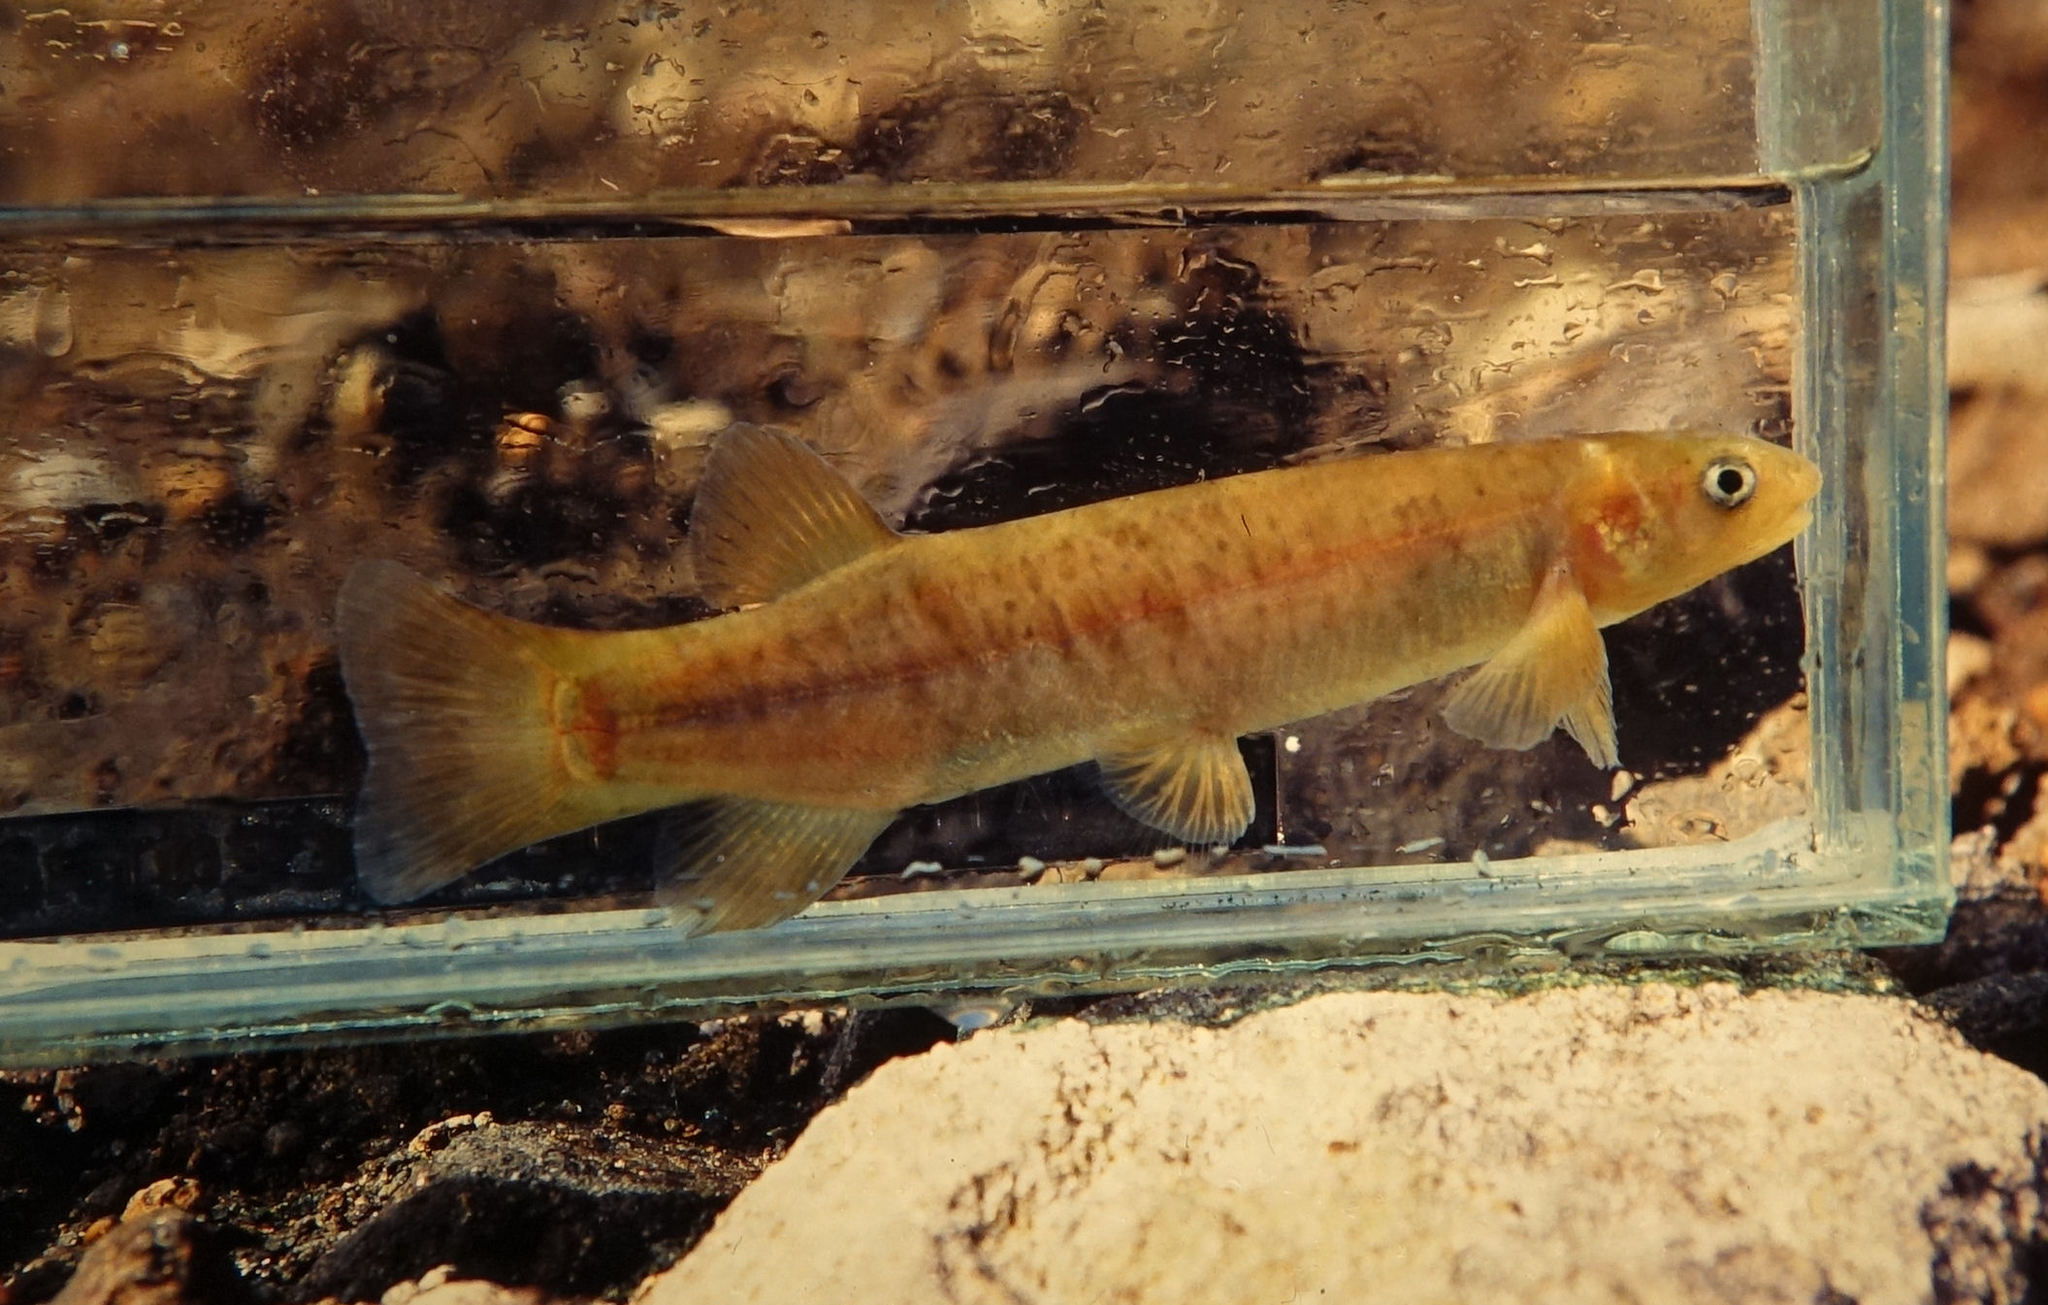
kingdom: Animalia
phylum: Chordata
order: Osmeriformes
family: Galaxiidae
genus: Galaxias
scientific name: Galaxias postvectis
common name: Shortjaw kokopu
